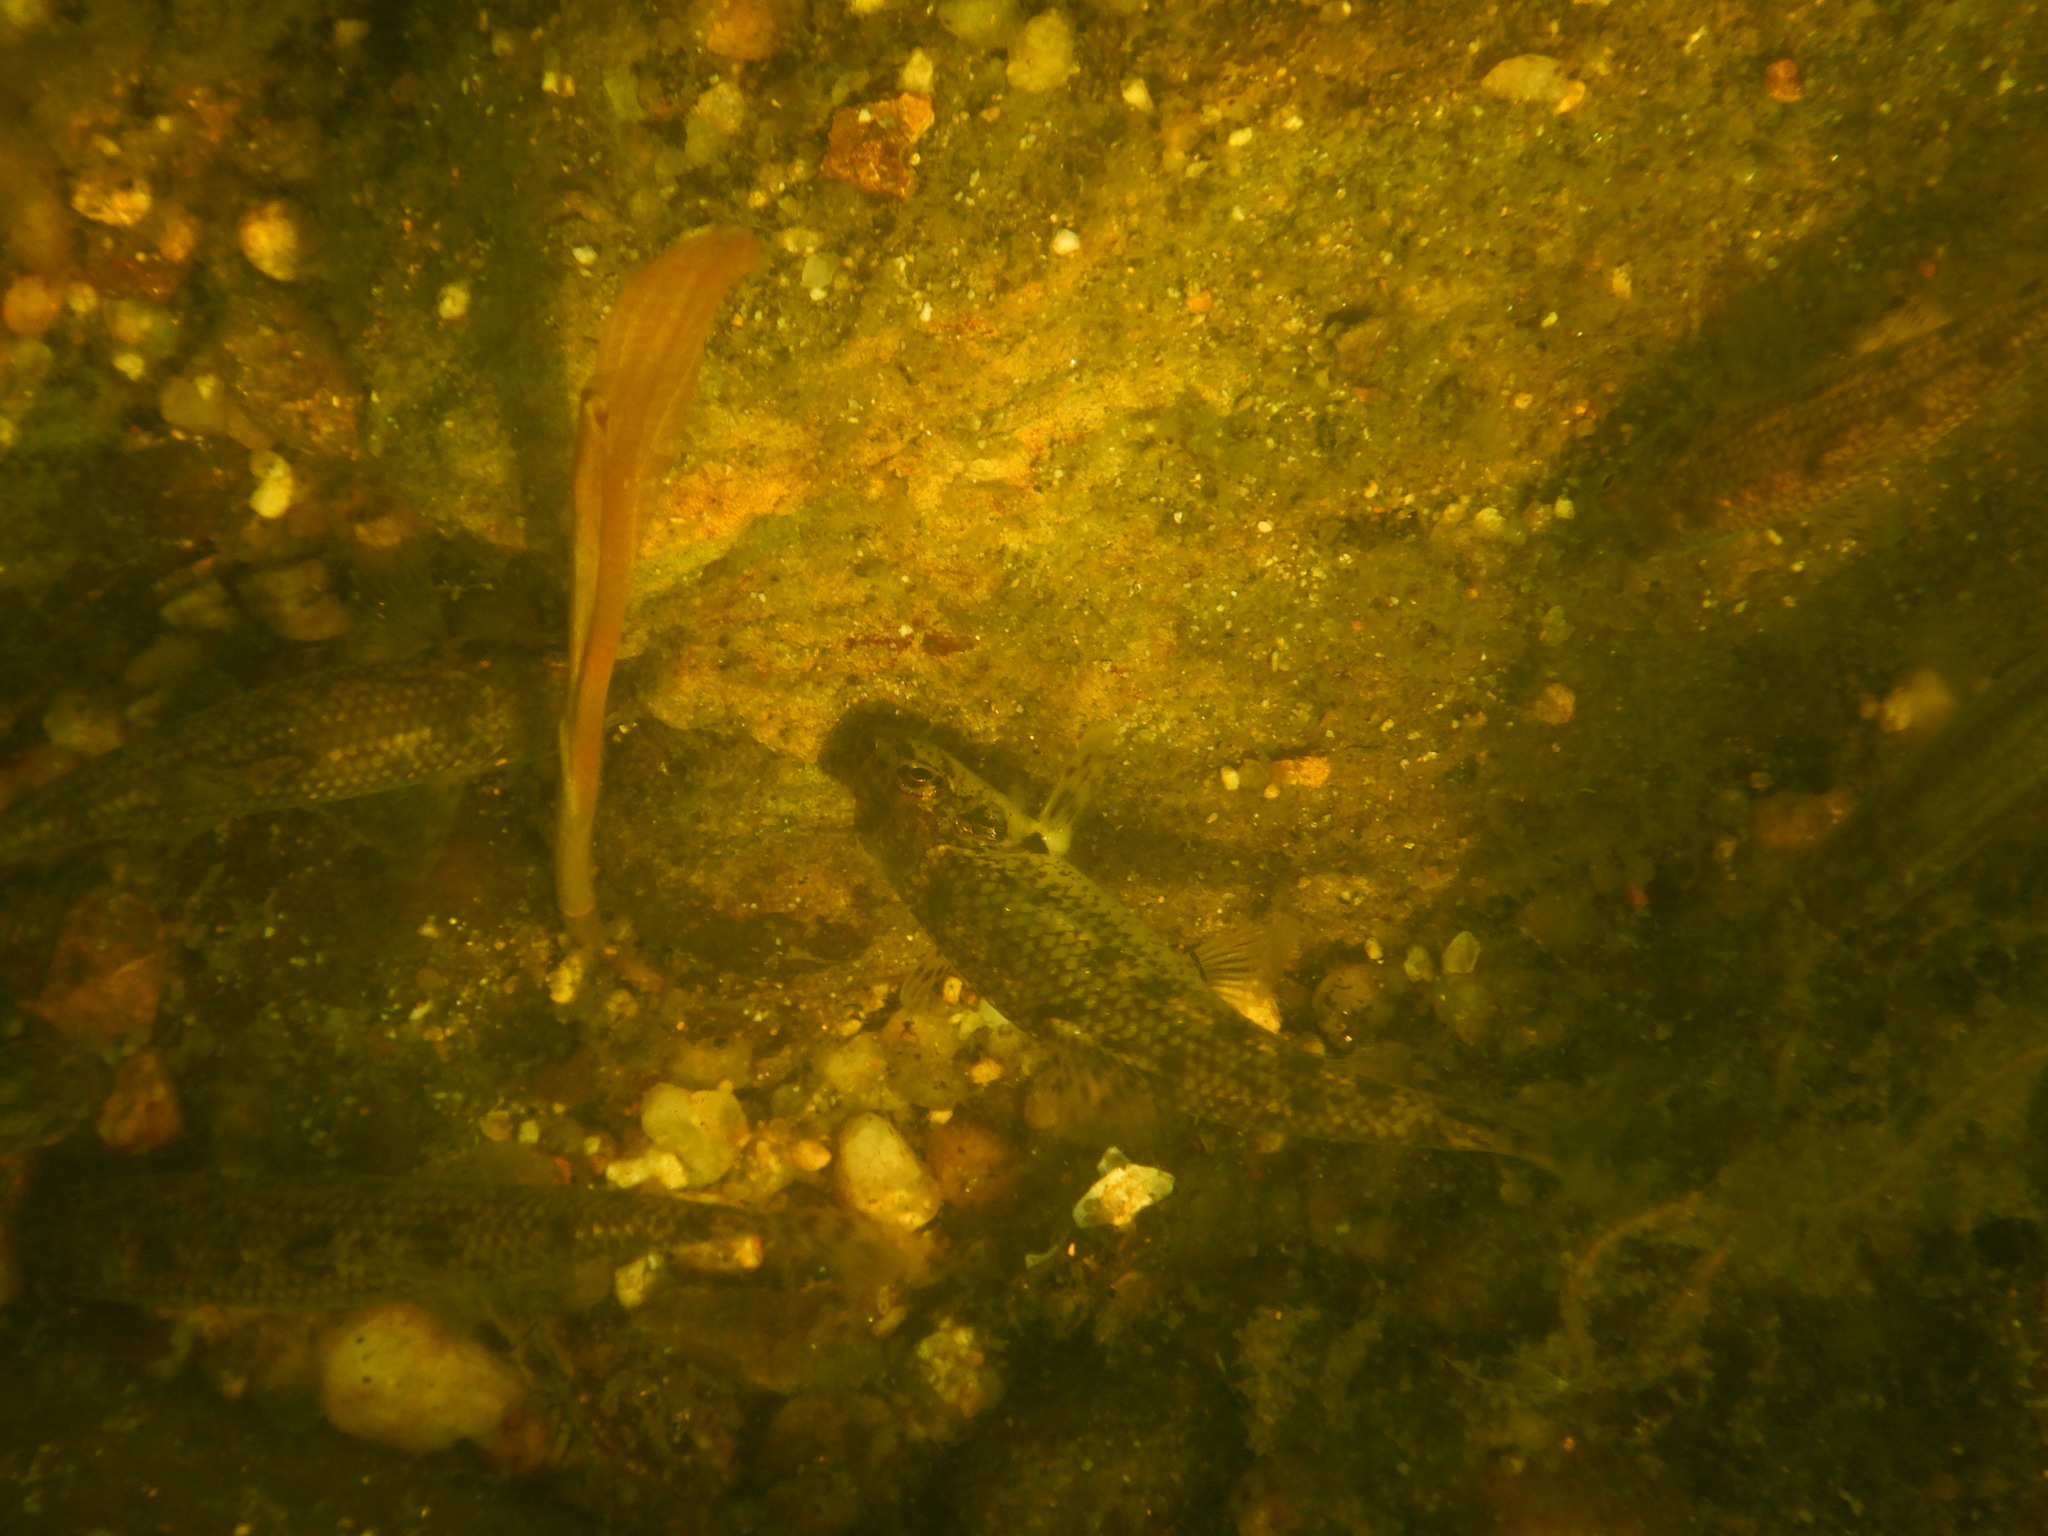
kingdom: Animalia
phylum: Chordata
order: Cypriniformes
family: Cyprinidae
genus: Gobio
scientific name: Gobio lozanoi
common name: Iberian gudgeon
